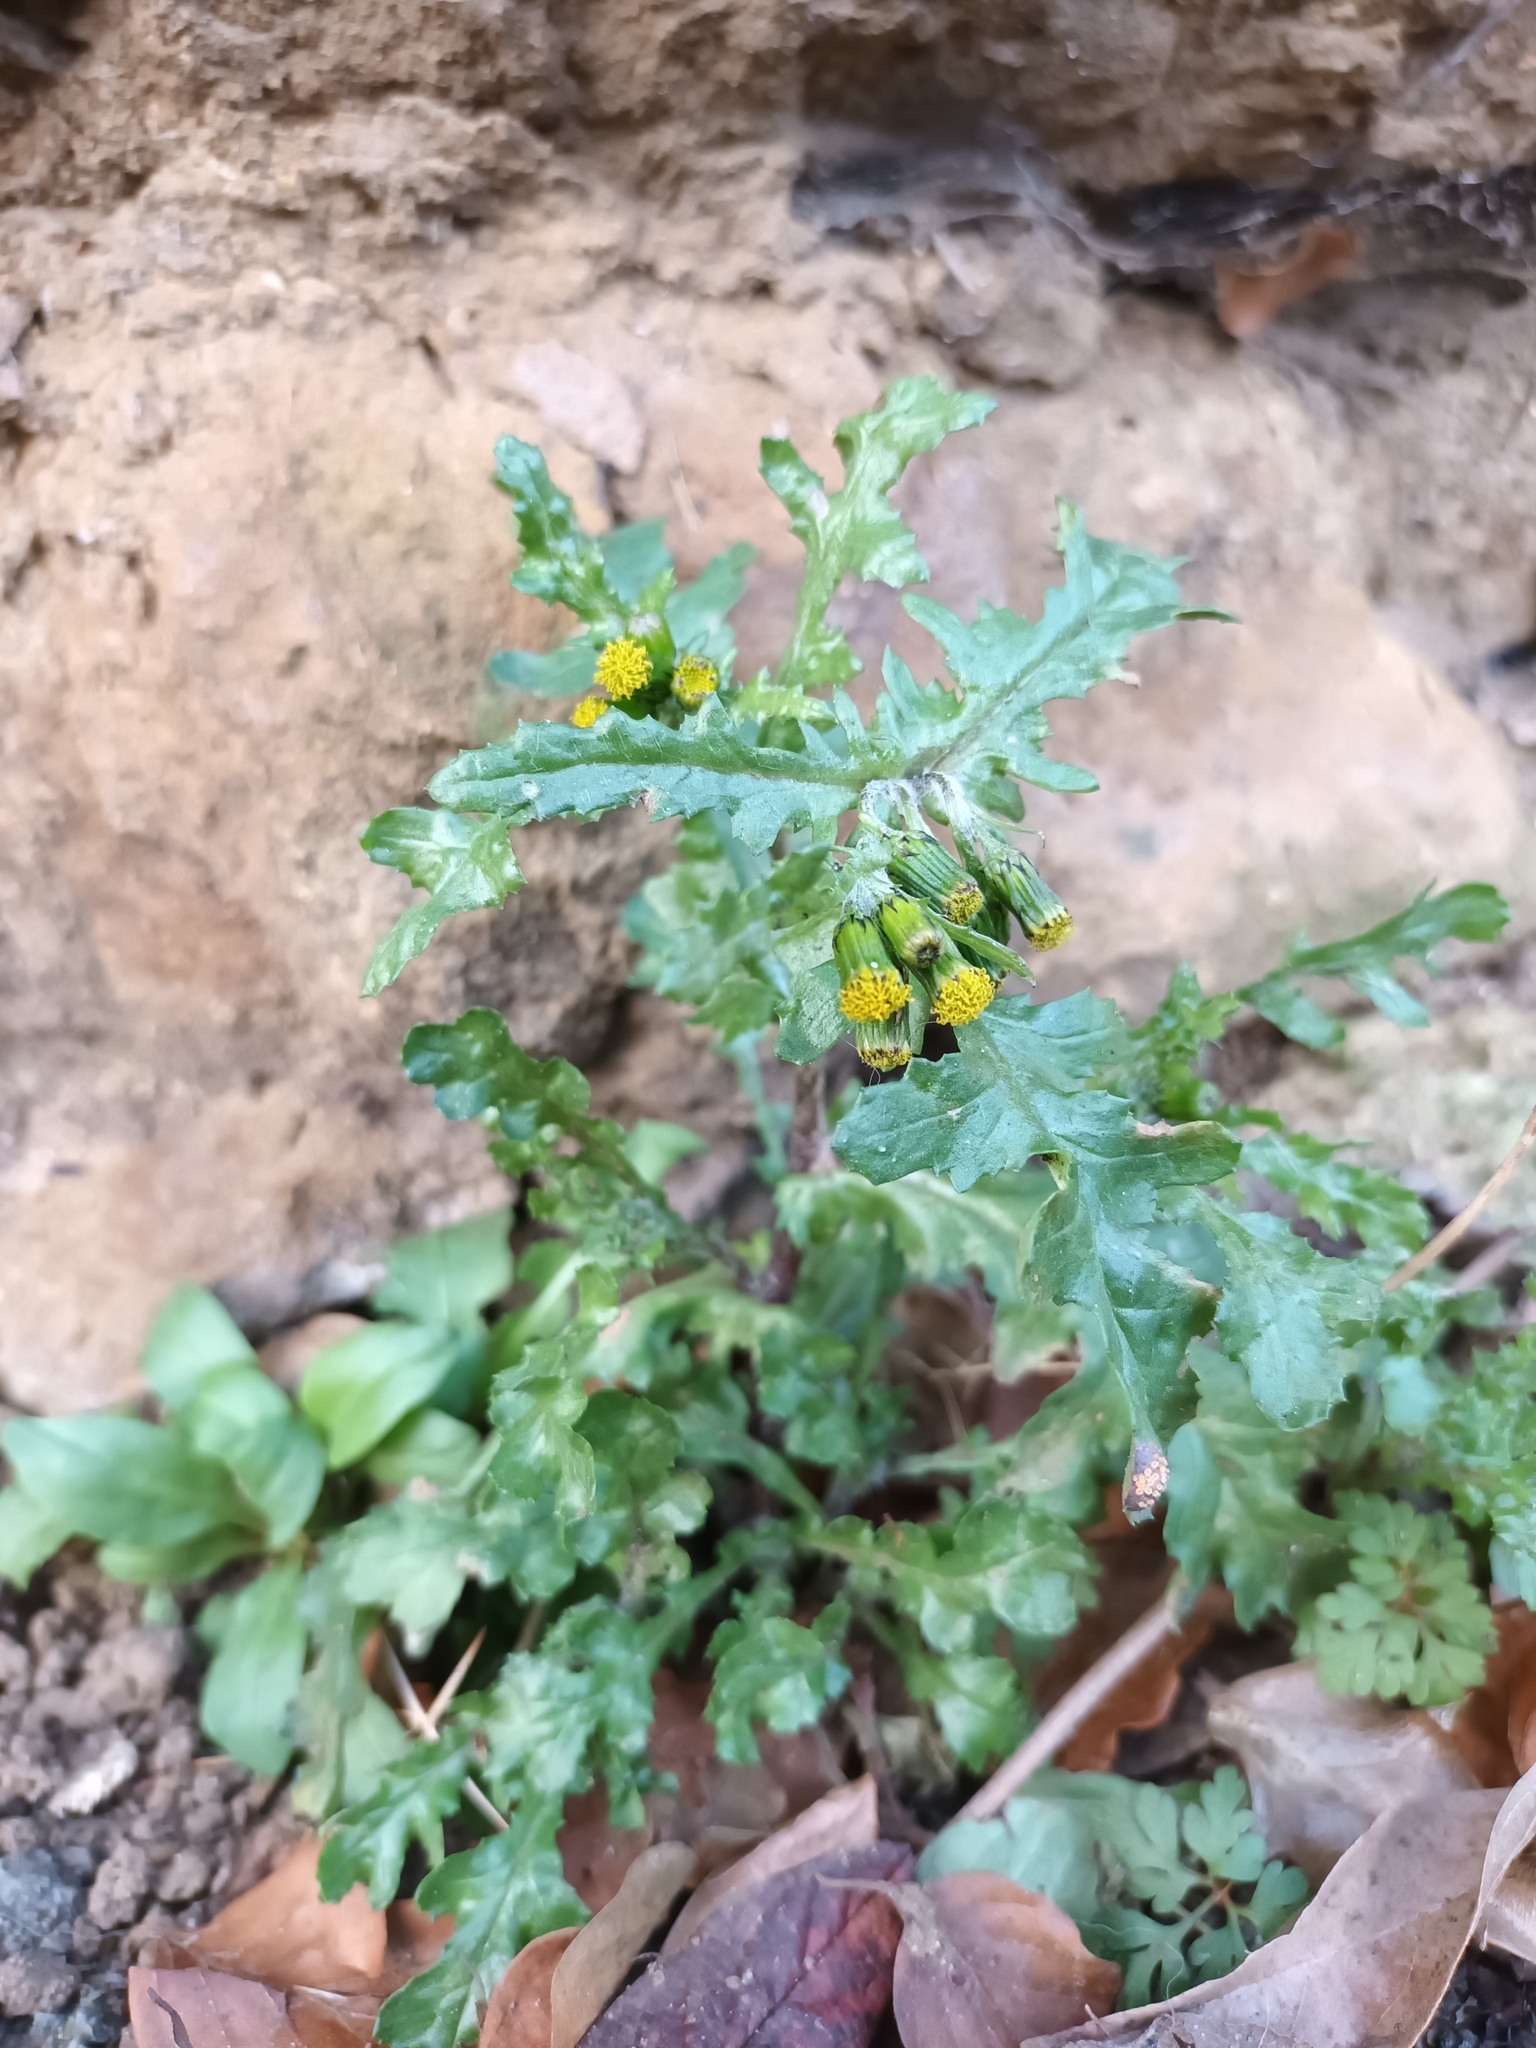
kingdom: Plantae
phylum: Tracheophyta
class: Magnoliopsida
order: Asterales
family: Asteraceae
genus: Senecio
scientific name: Senecio vulgaris
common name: Old-man-in-the-spring
